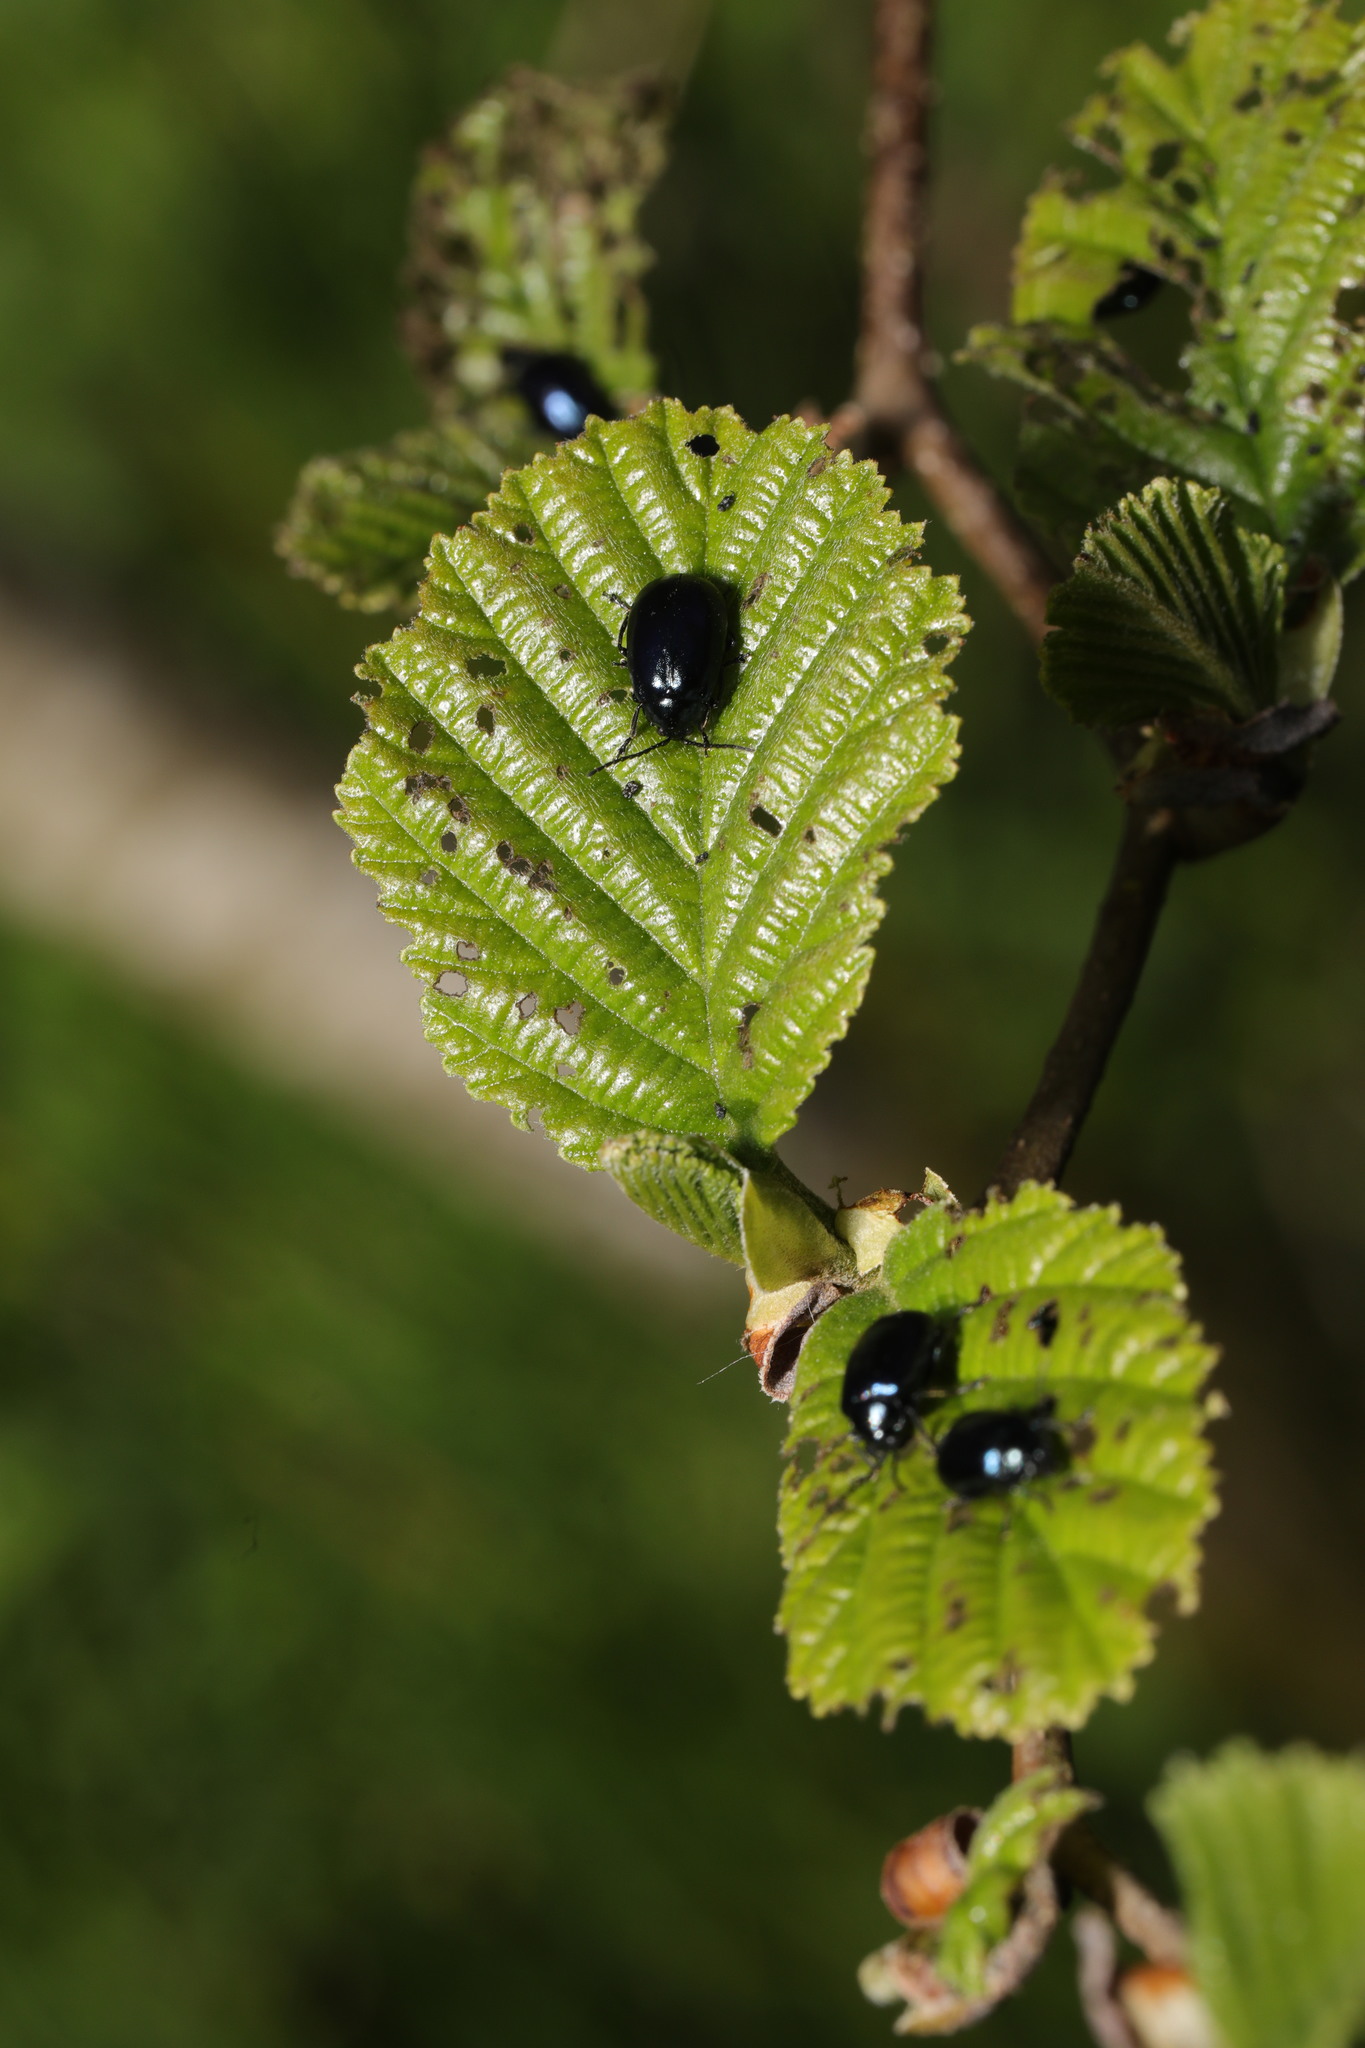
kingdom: Plantae
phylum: Tracheophyta
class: Magnoliopsida
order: Fagales
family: Betulaceae
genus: Alnus
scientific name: Alnus glutinosa
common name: Black alder
